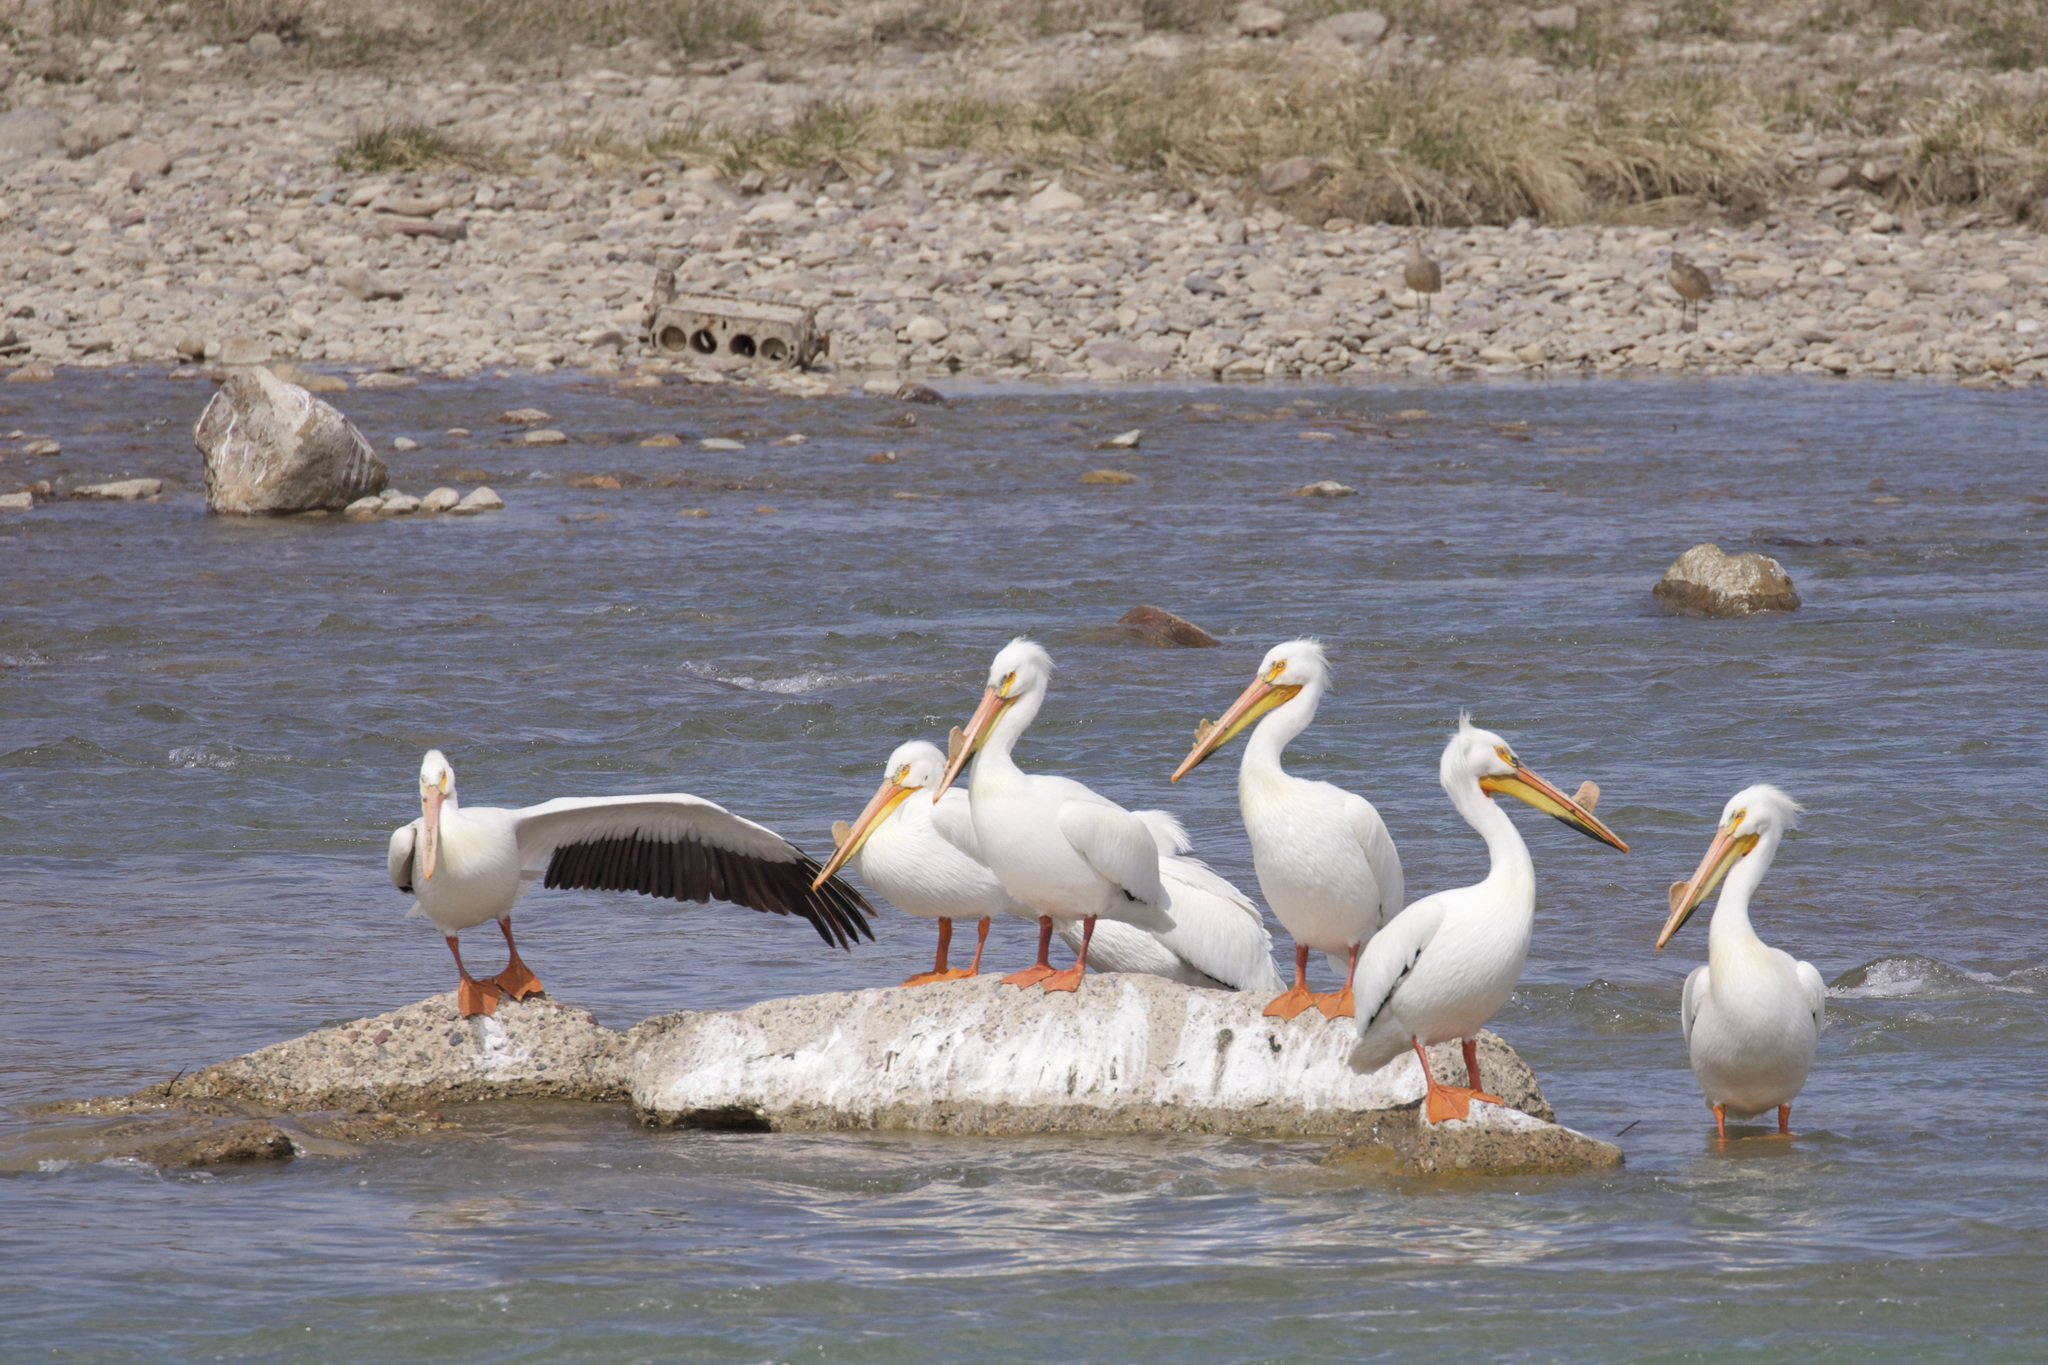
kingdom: Animalia
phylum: Chordata
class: Aves
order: Pelecaniformes
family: Pelecanidae
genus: Pelecanus
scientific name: Pelecanus erythrorhynchos
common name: American white pelican
